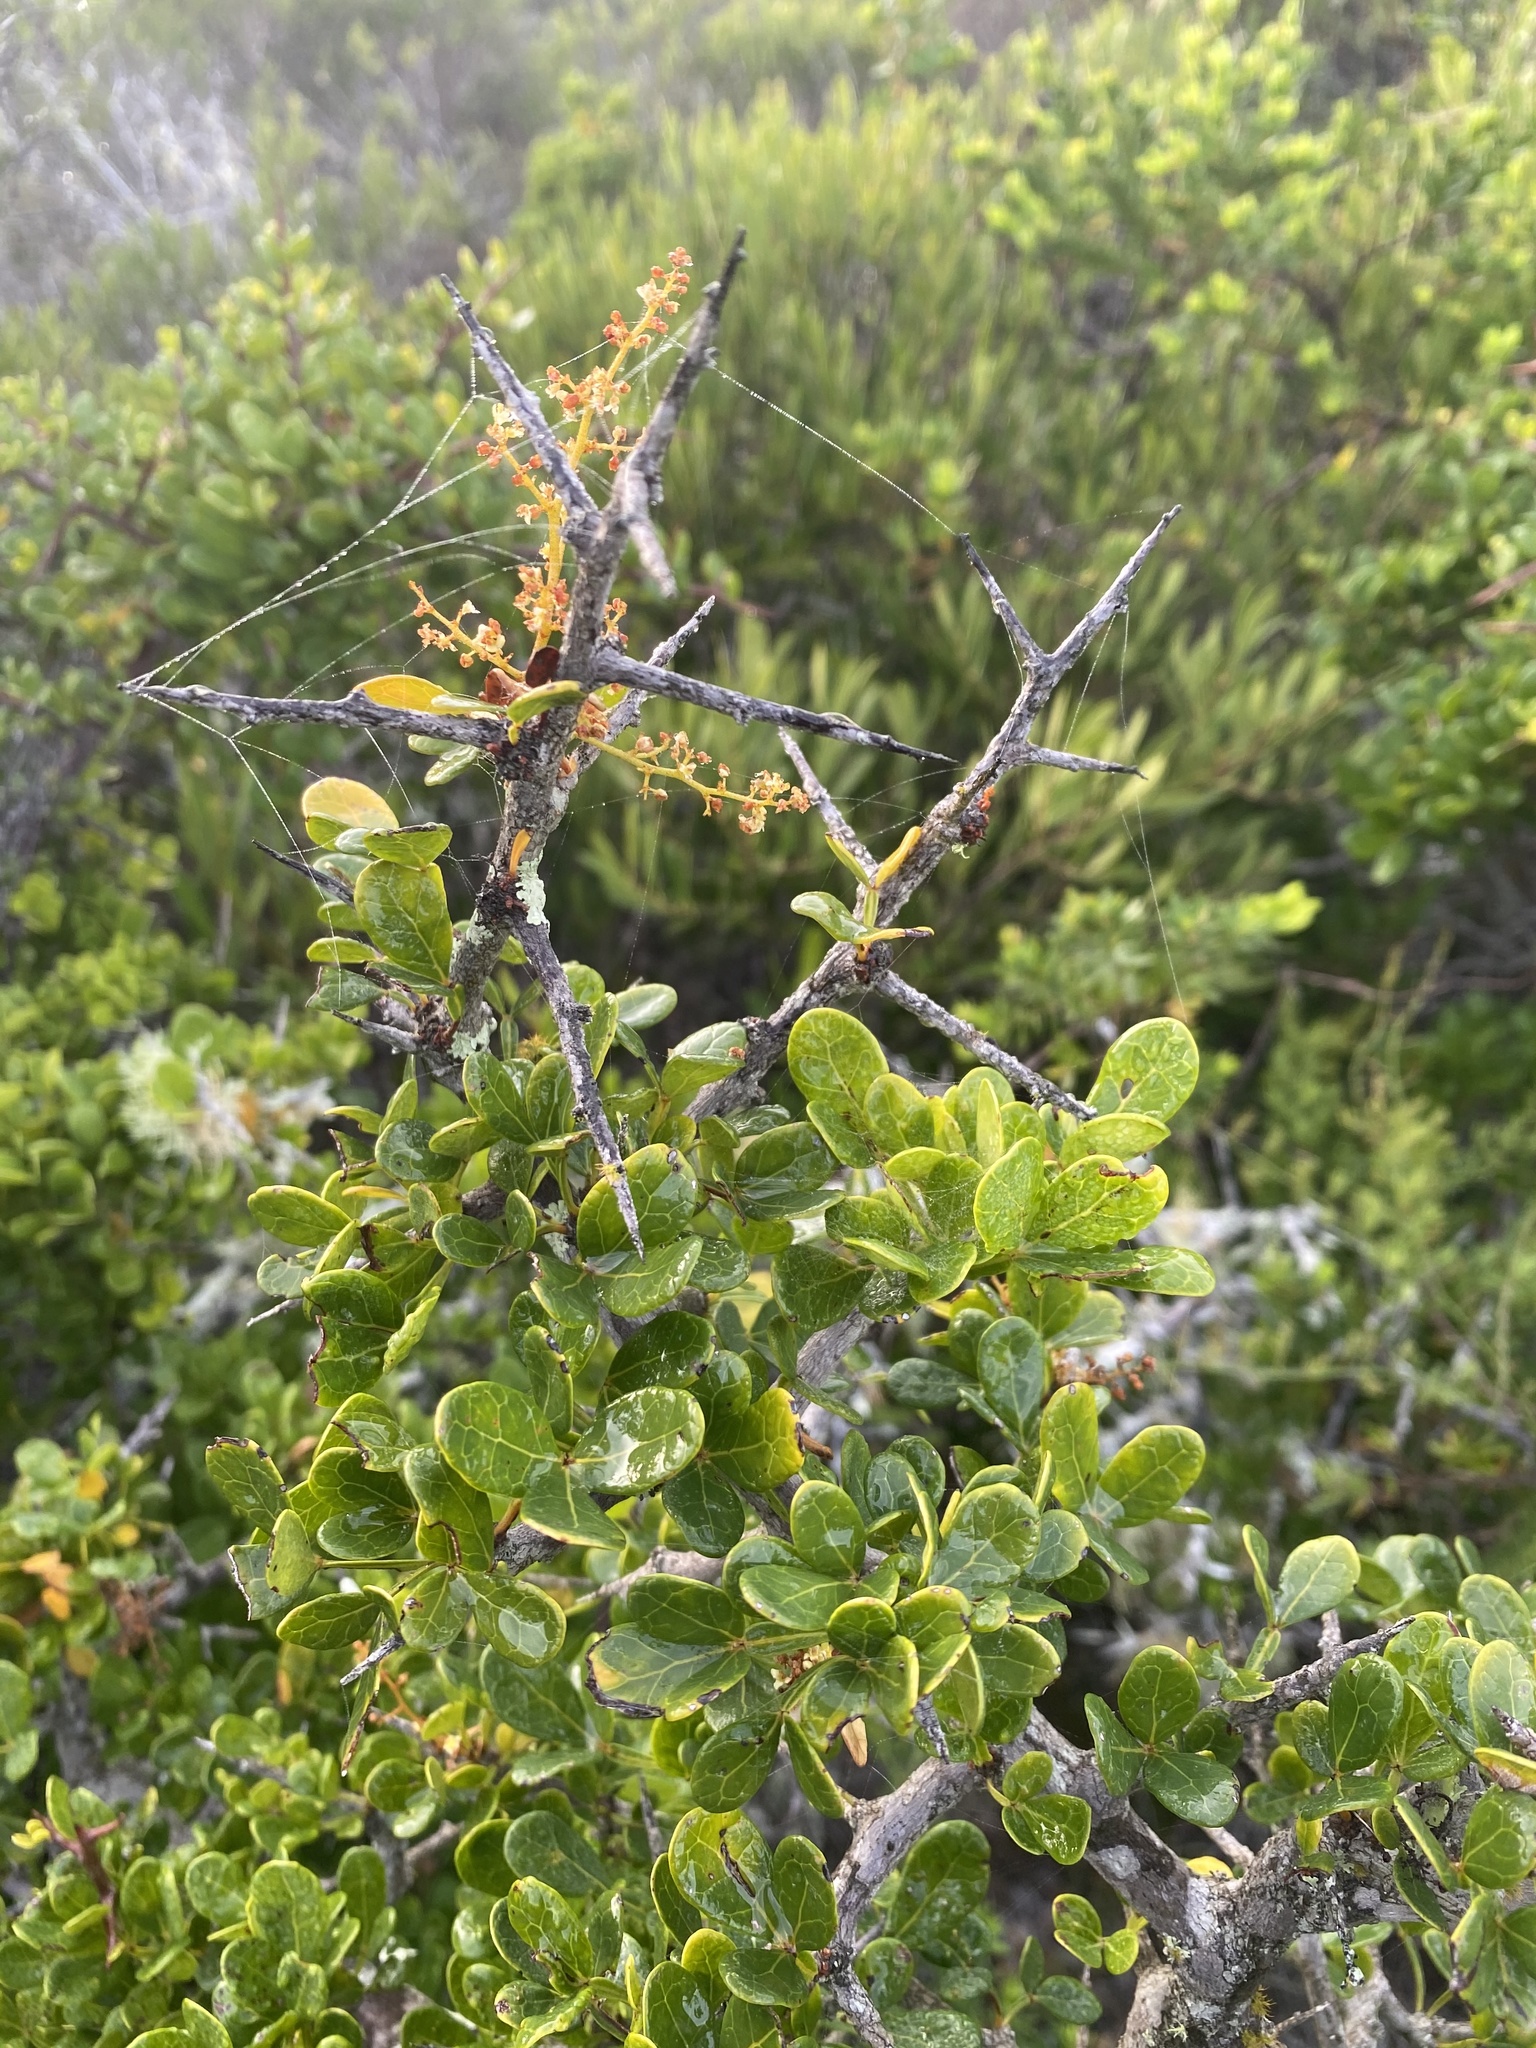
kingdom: Plantae
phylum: Tracheophyta
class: Magnoliopsida
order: Sapindales
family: Anacardiaceae
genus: Searsia
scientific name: Searsia pterota
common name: Winged currant
